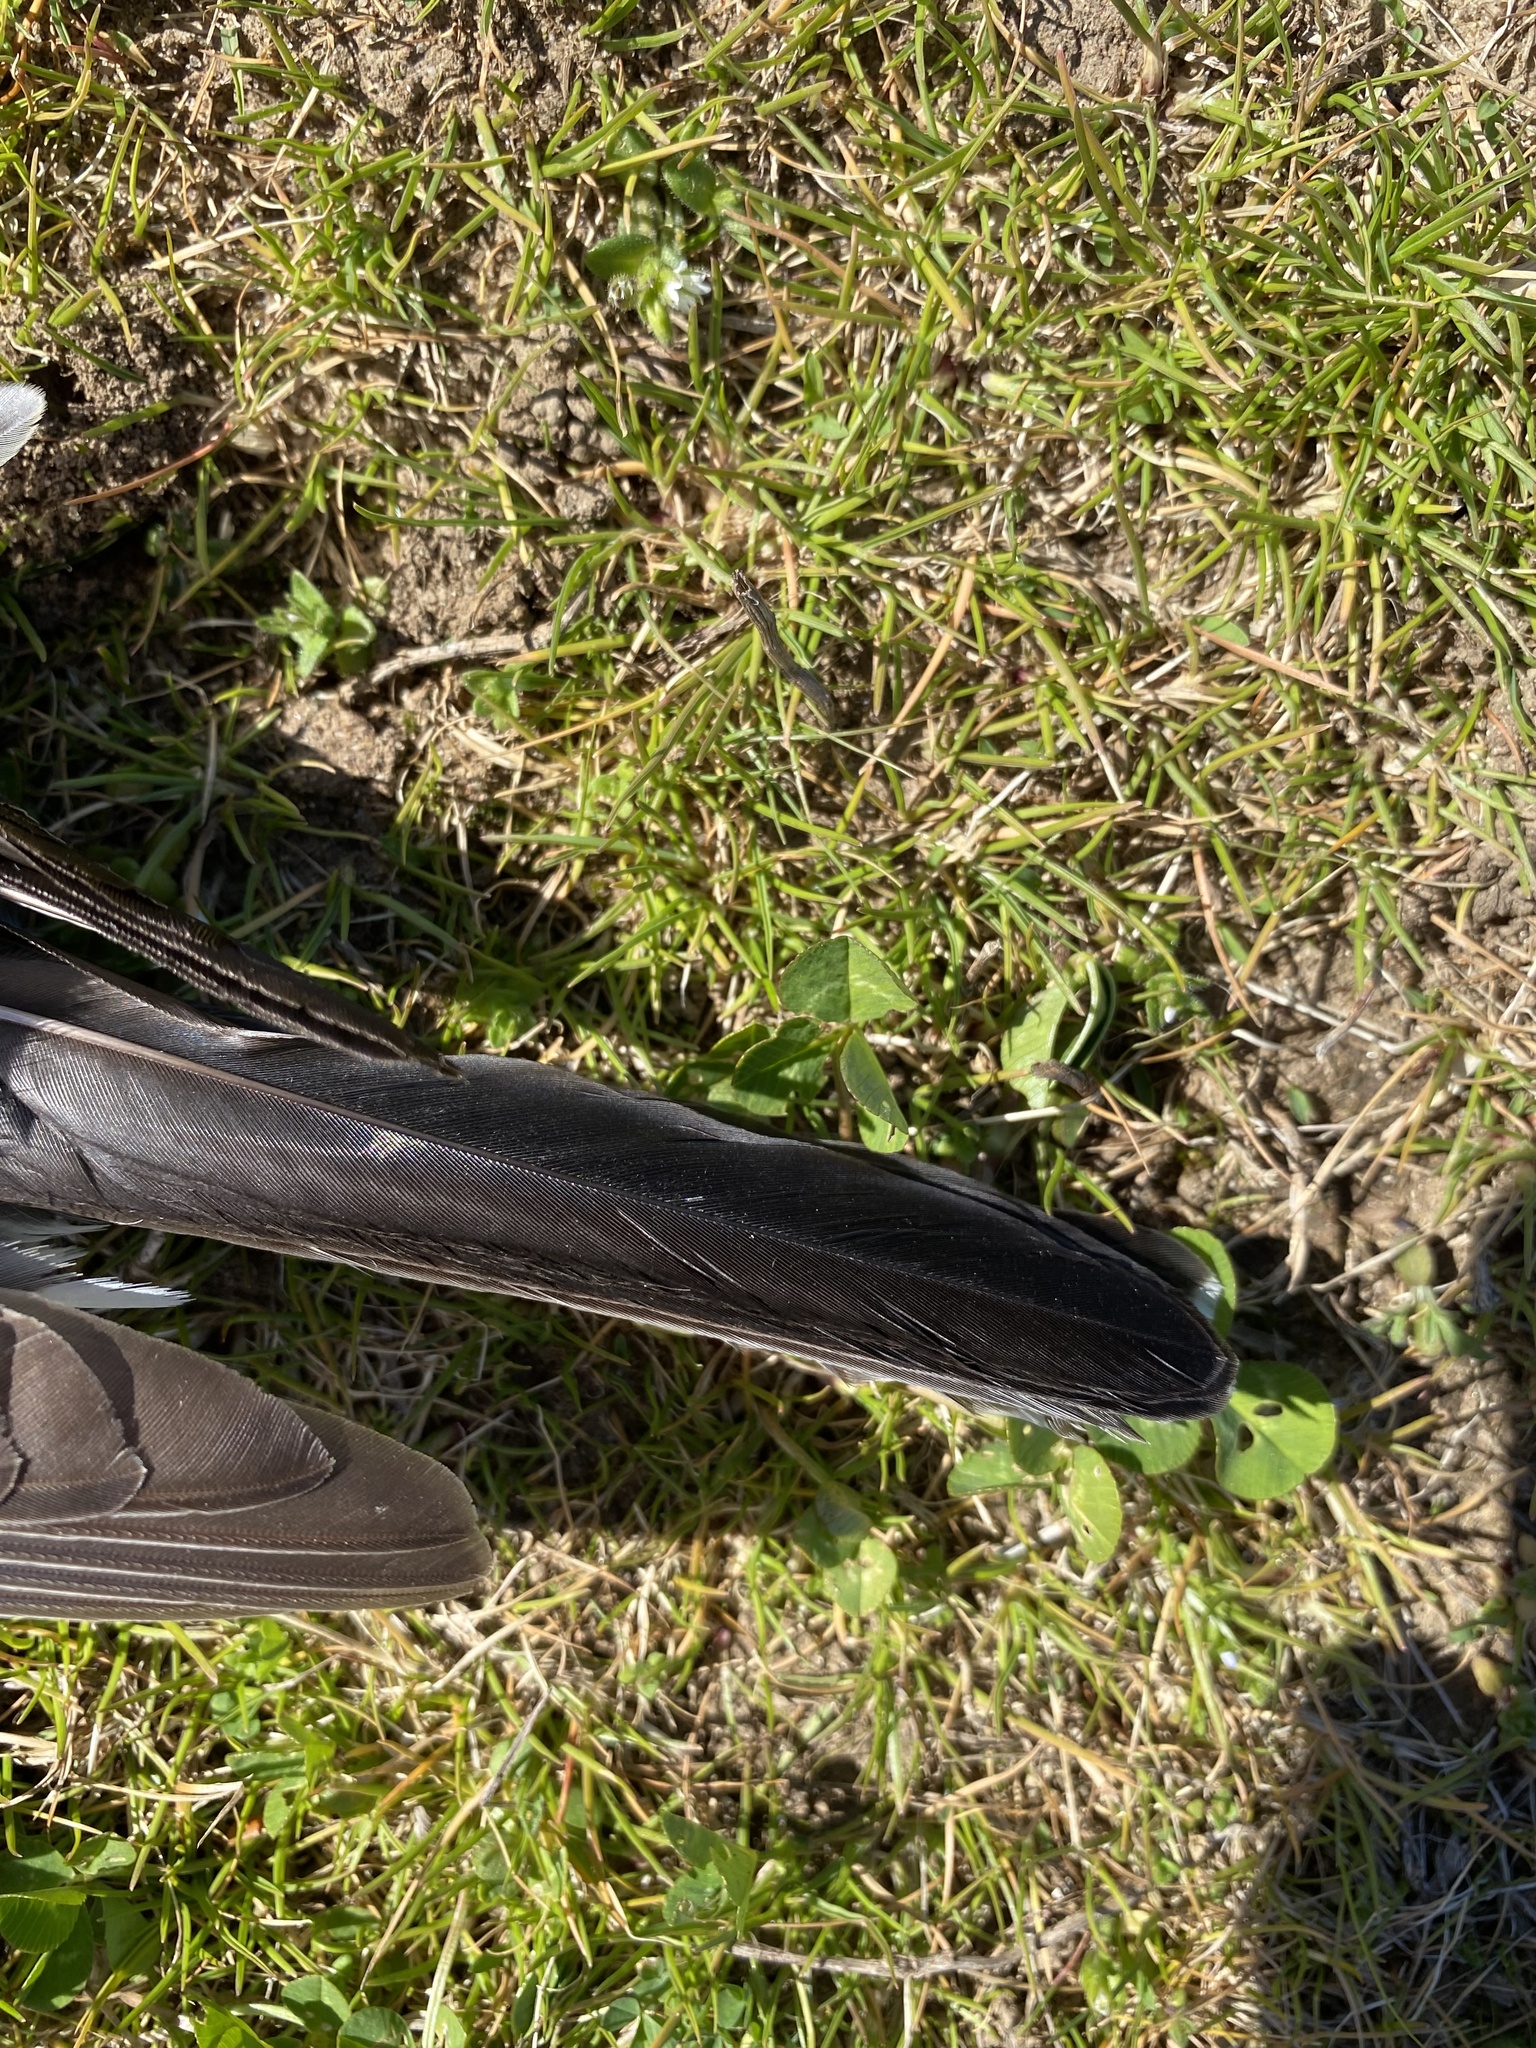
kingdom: Animalia
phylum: Chordata
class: Aves
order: Passeriformes
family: Turdidae
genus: Turdus
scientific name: Turdus migratorius
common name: American robin
